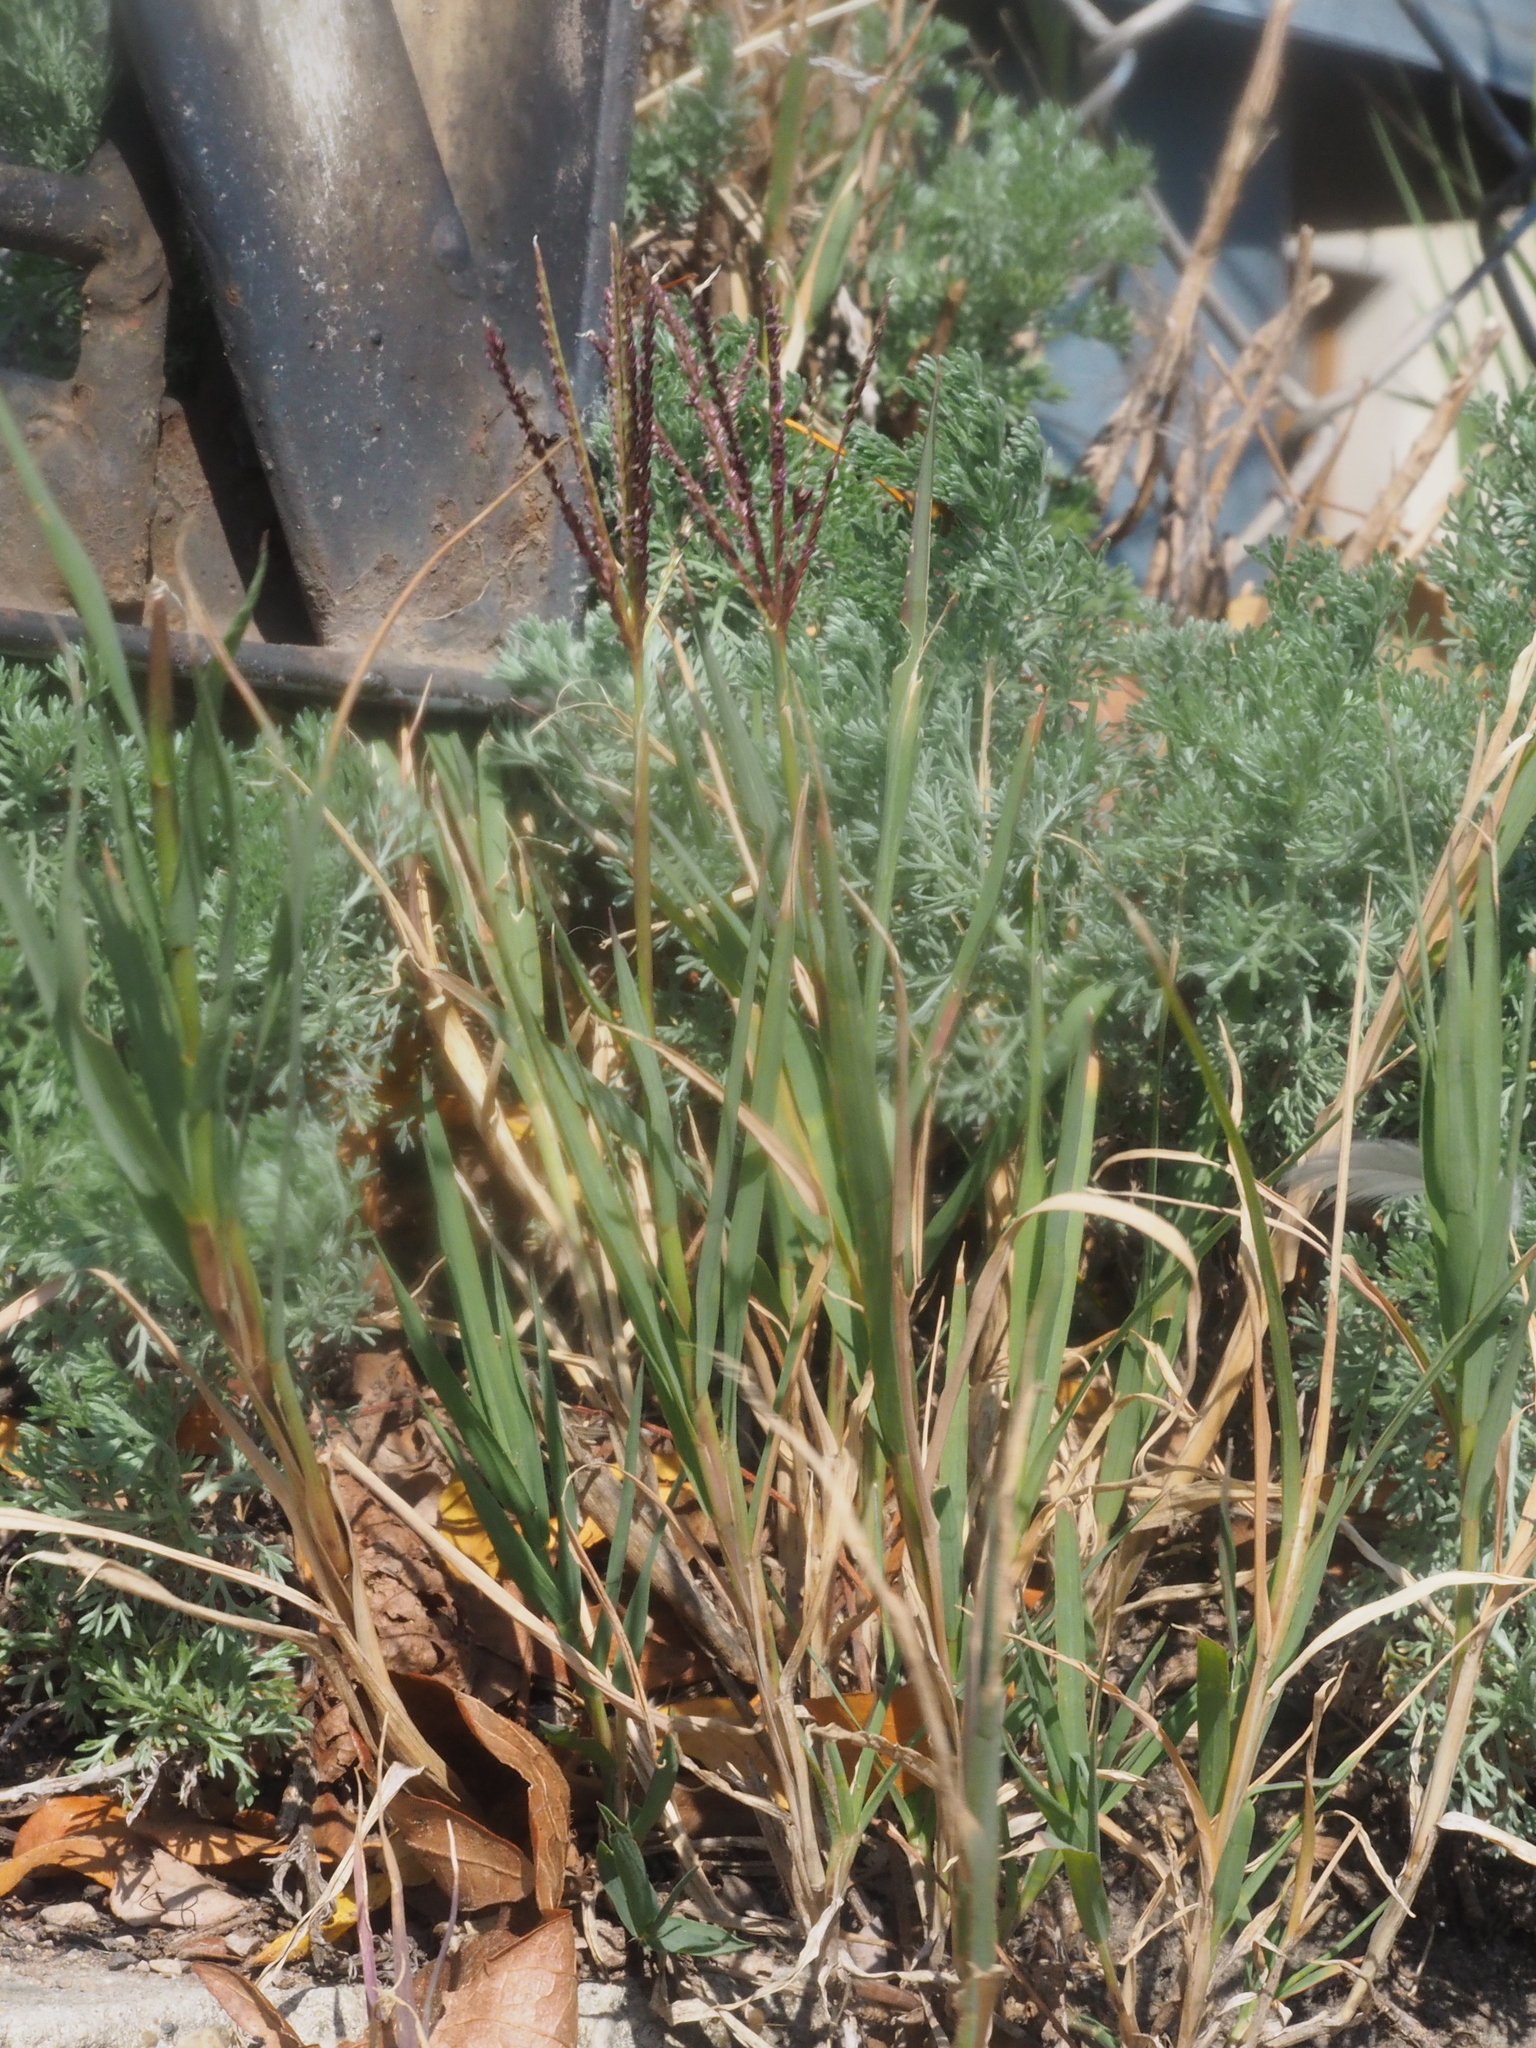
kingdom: Plantae
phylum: Tracheophyta
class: Liliopsida
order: Poales
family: Poaceae
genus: Cynodon
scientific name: Cynodon dactylon
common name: Bermuda grass
